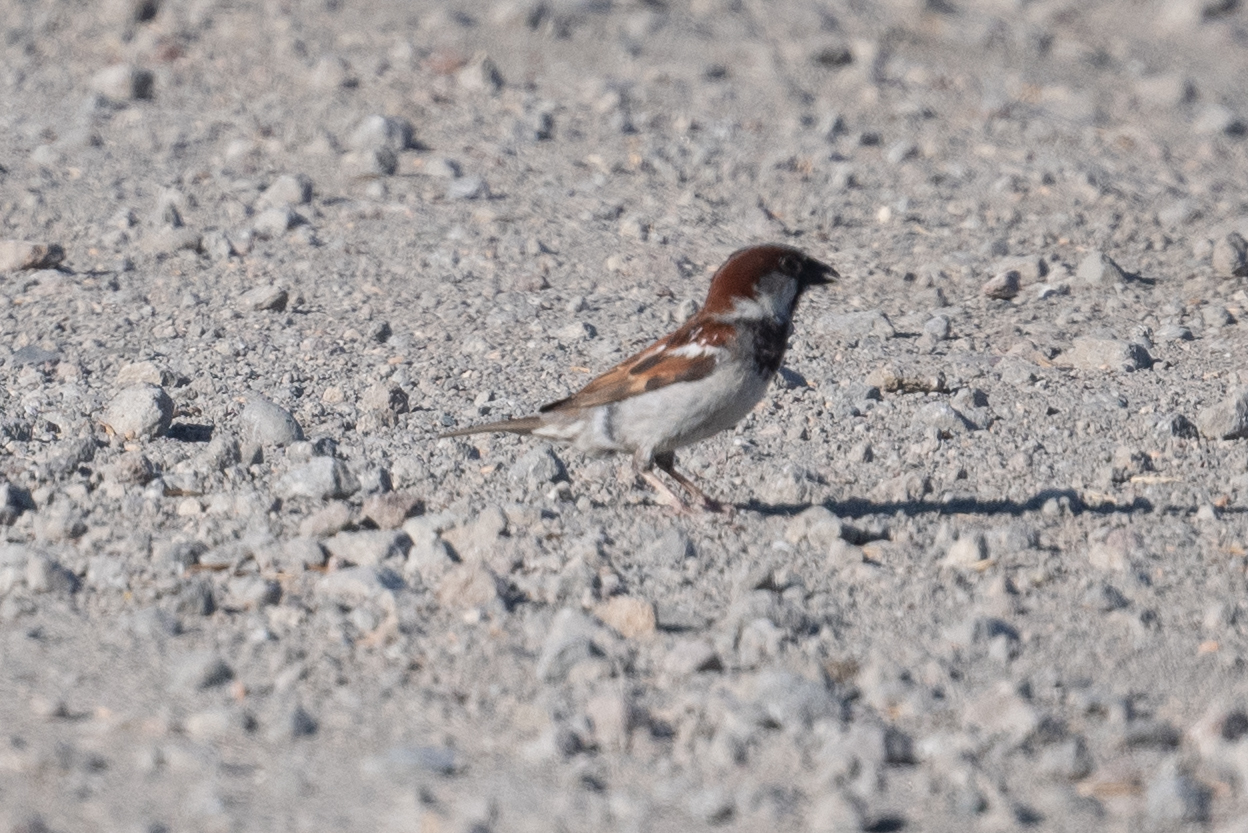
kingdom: Animalia
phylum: Chordata
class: Aves
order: Passeriformes
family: Passeridae
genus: Passer
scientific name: Passer domesticus
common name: House sparrow
